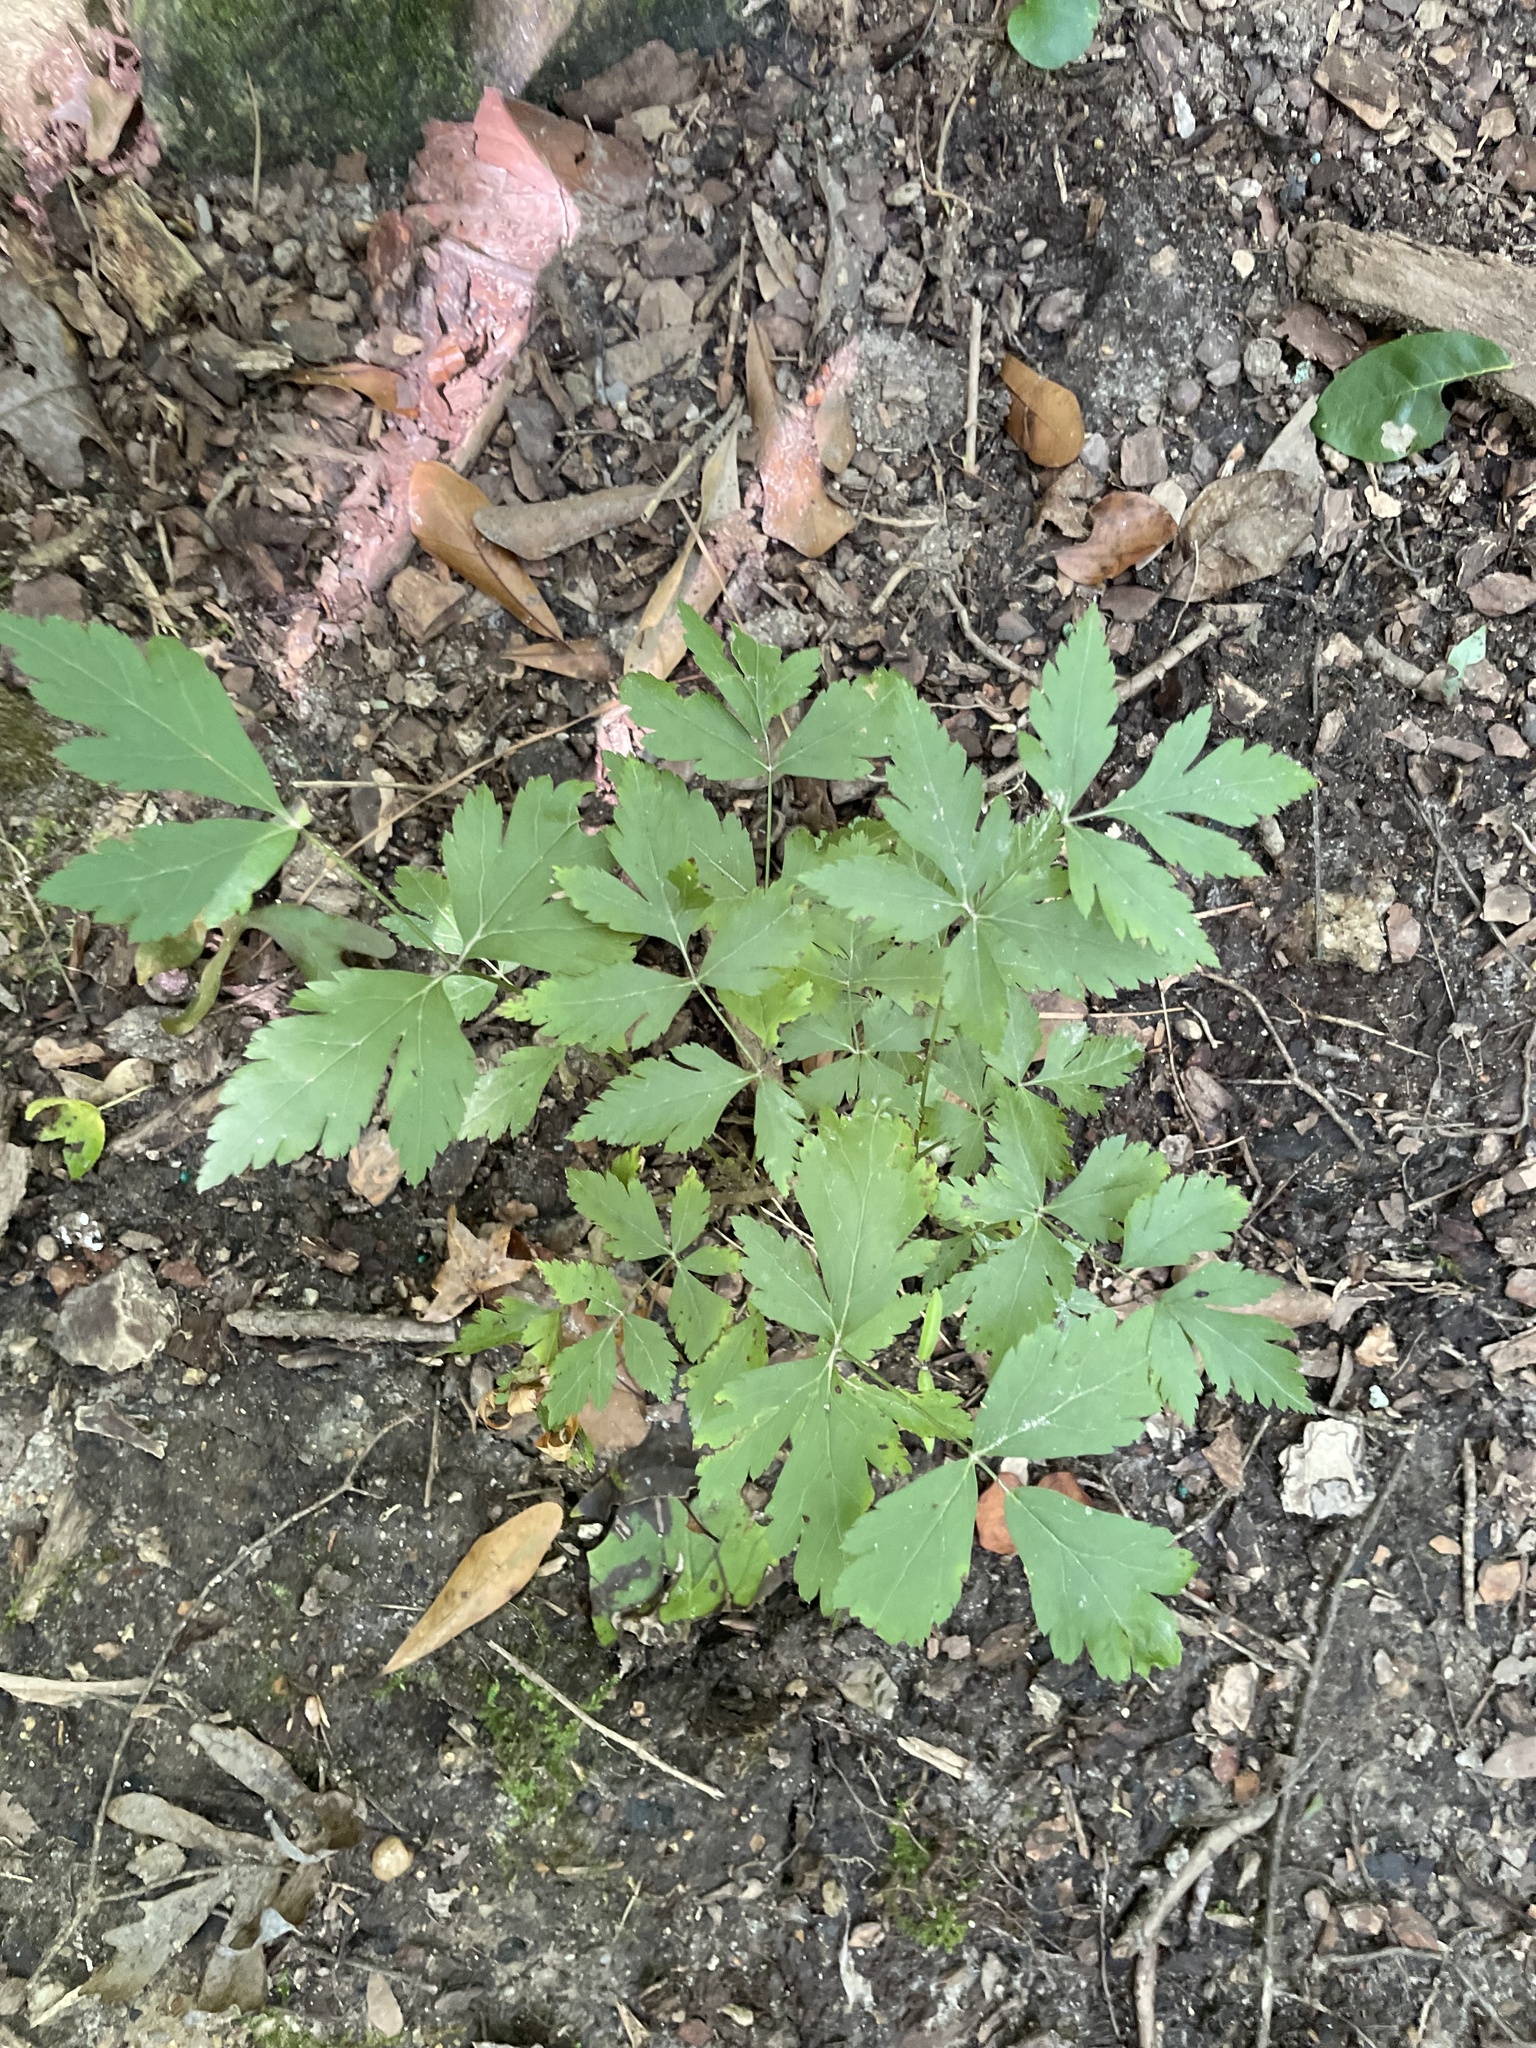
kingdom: Plantae
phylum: Tracheophyta
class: Magnoliopsida
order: Ranunculales
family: Ranunculaceae
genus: Xanthorhiza
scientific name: Xanthorhiza simplicissima
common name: Yellowroot
